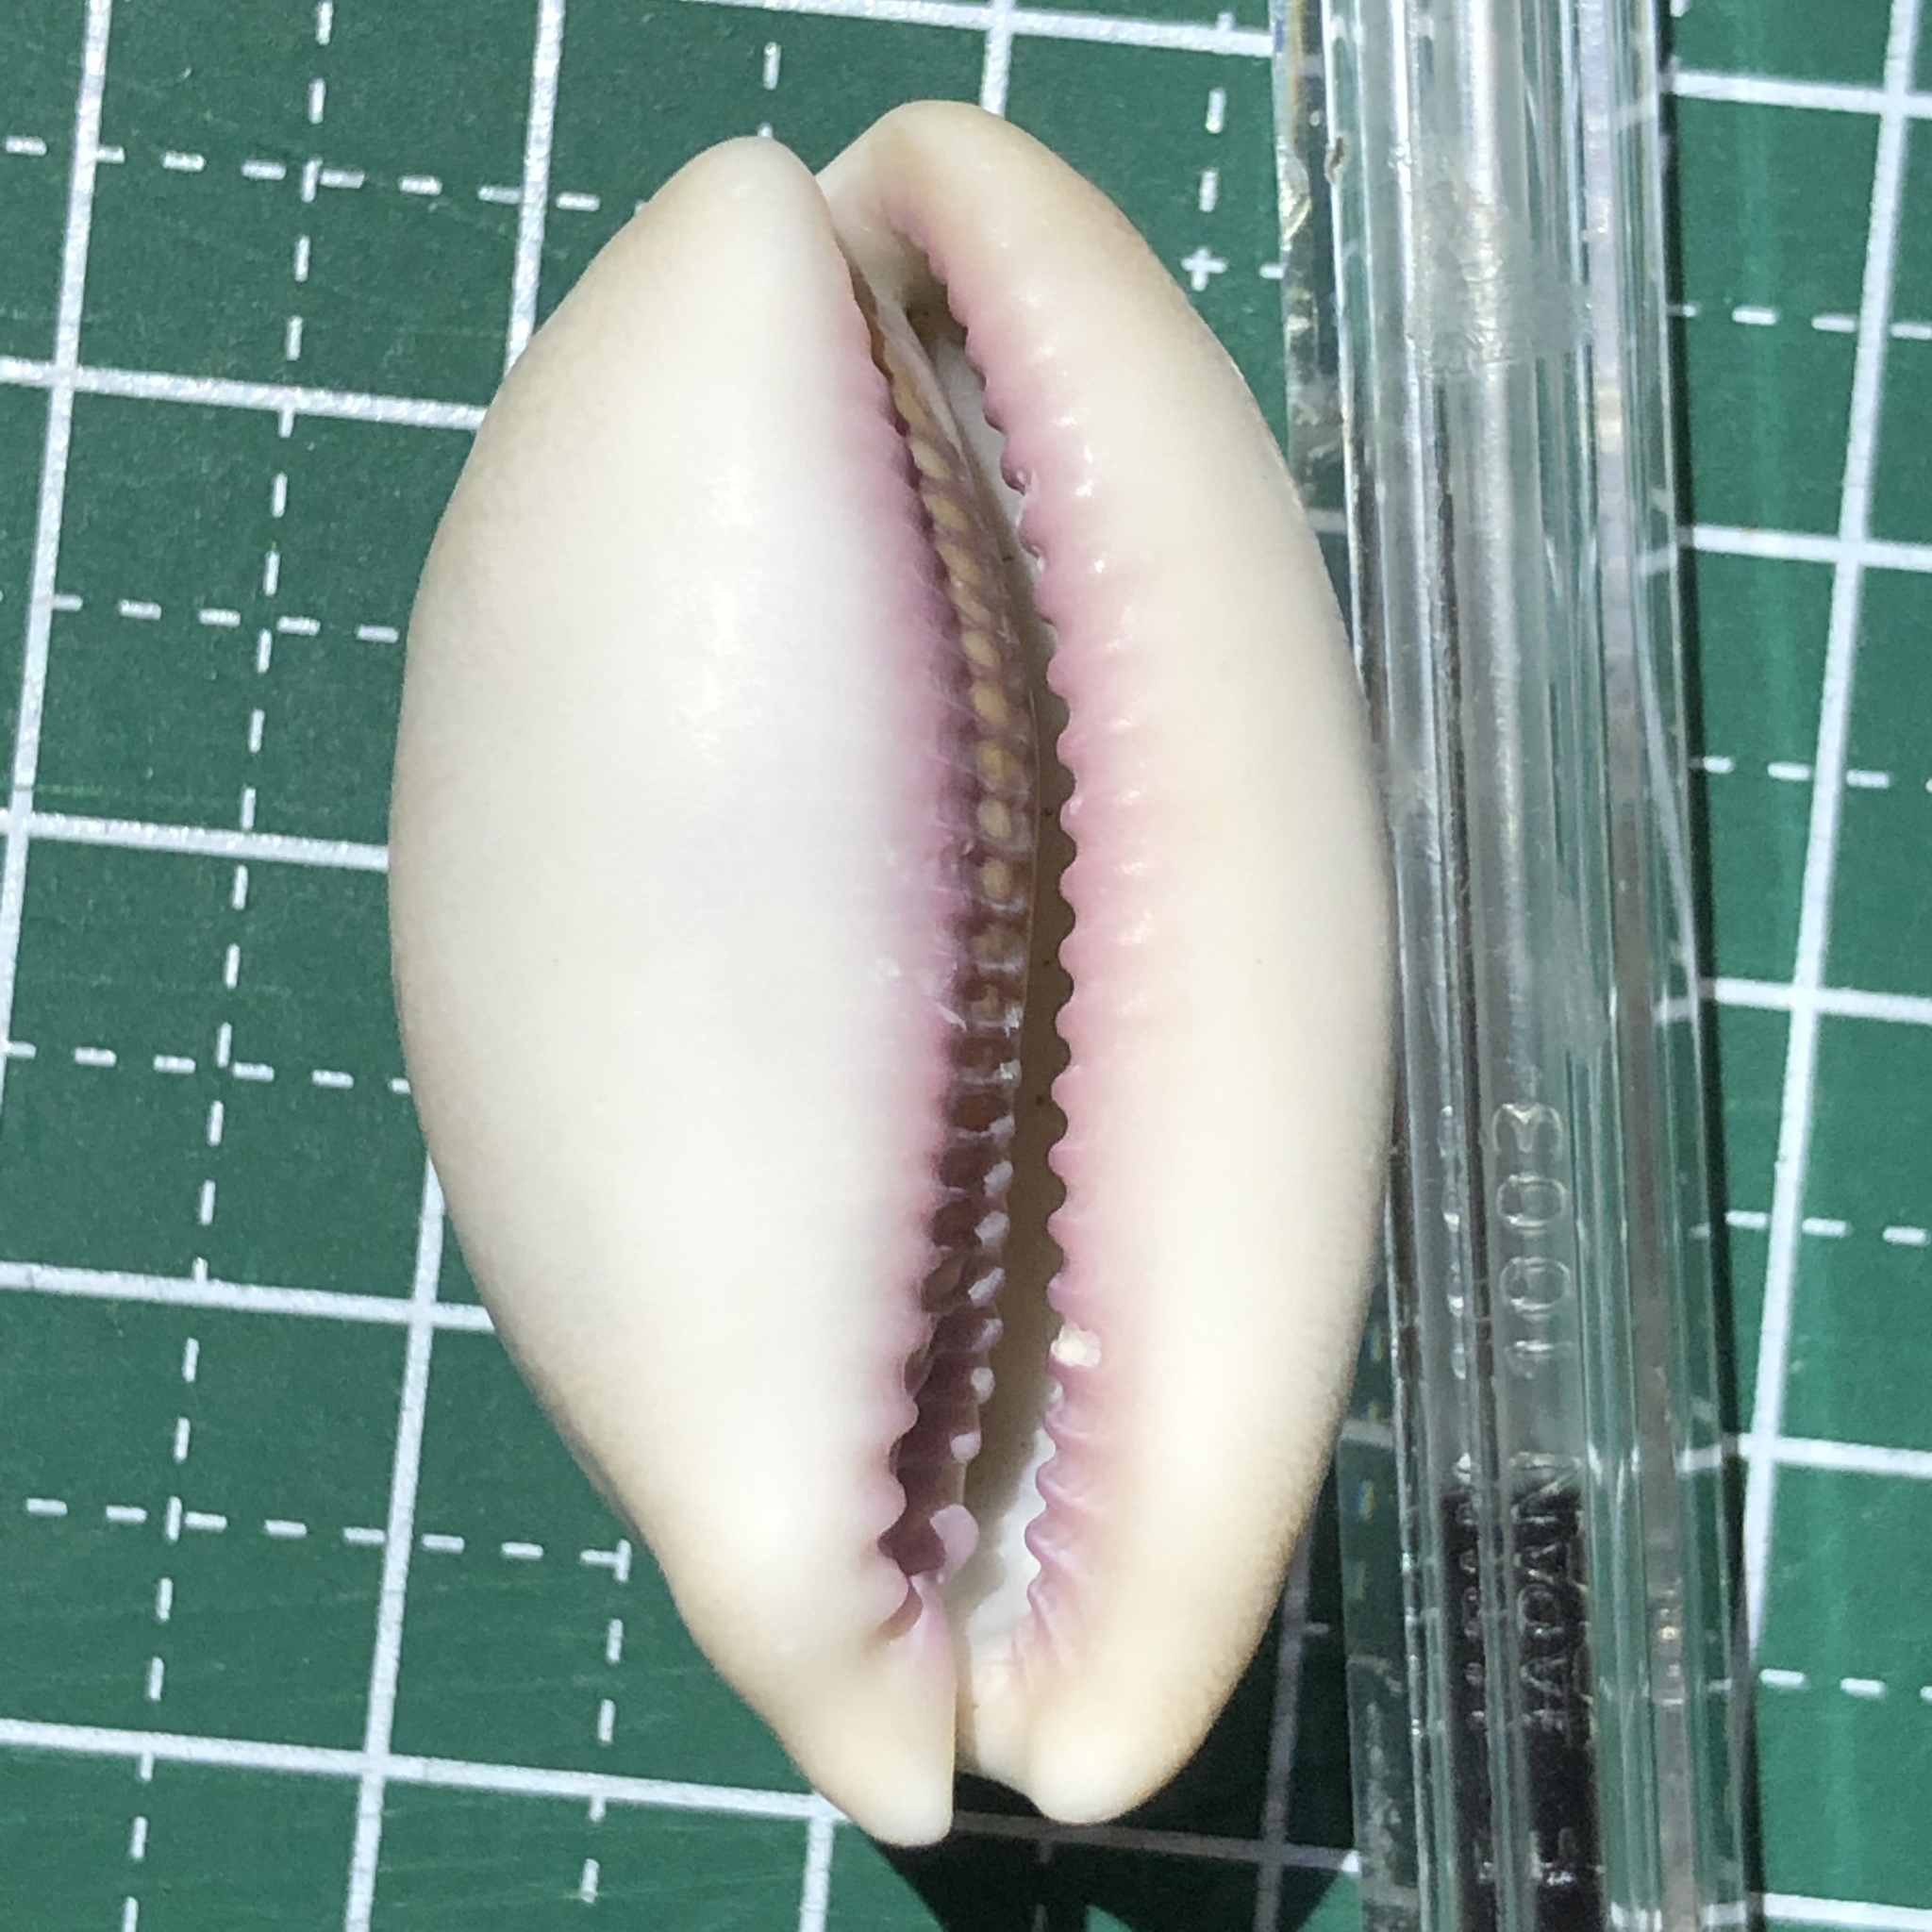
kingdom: Animalia
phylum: Mollusca
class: Gastropoda
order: Littorinimorpha
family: Cypraeidae
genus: Lyncina
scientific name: Lyncina carneola
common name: Purple-mouthed cowry
